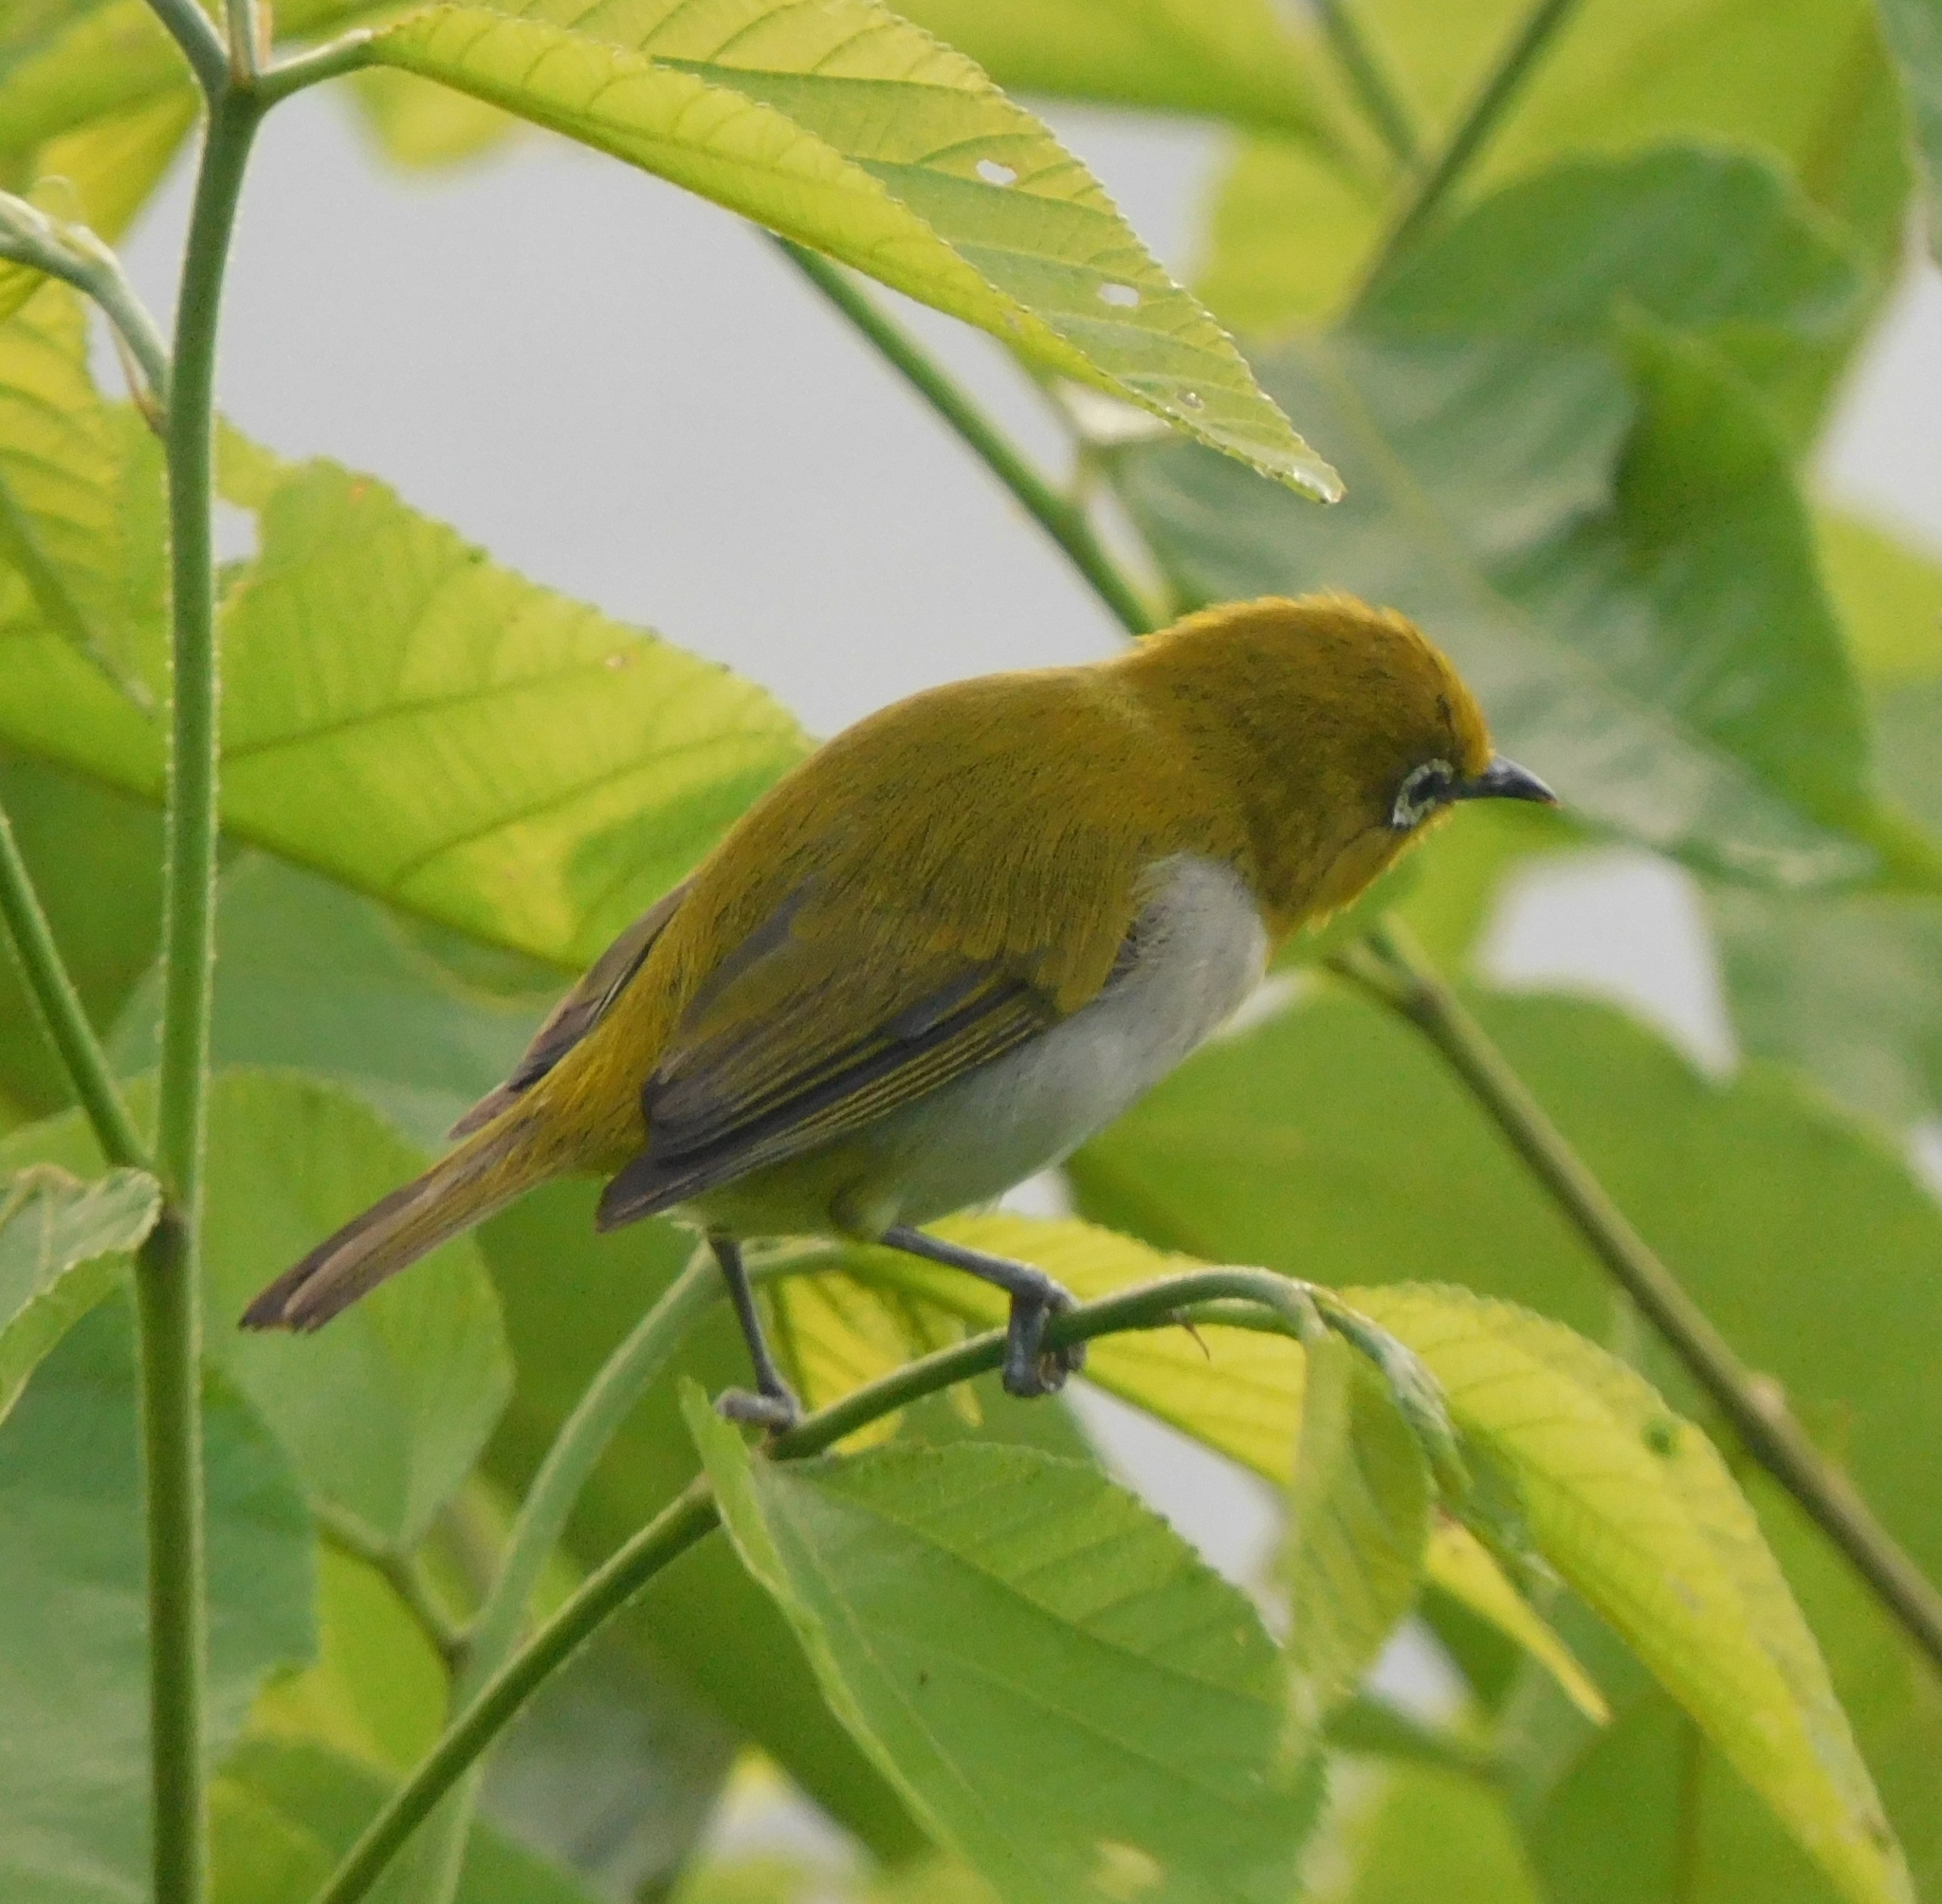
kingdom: Animalia
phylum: Chordata
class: Aves
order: Passeriformes
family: Zosteropidae
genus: Zosterops
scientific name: Zosterops palpebrosus
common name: Oriental white-eye
